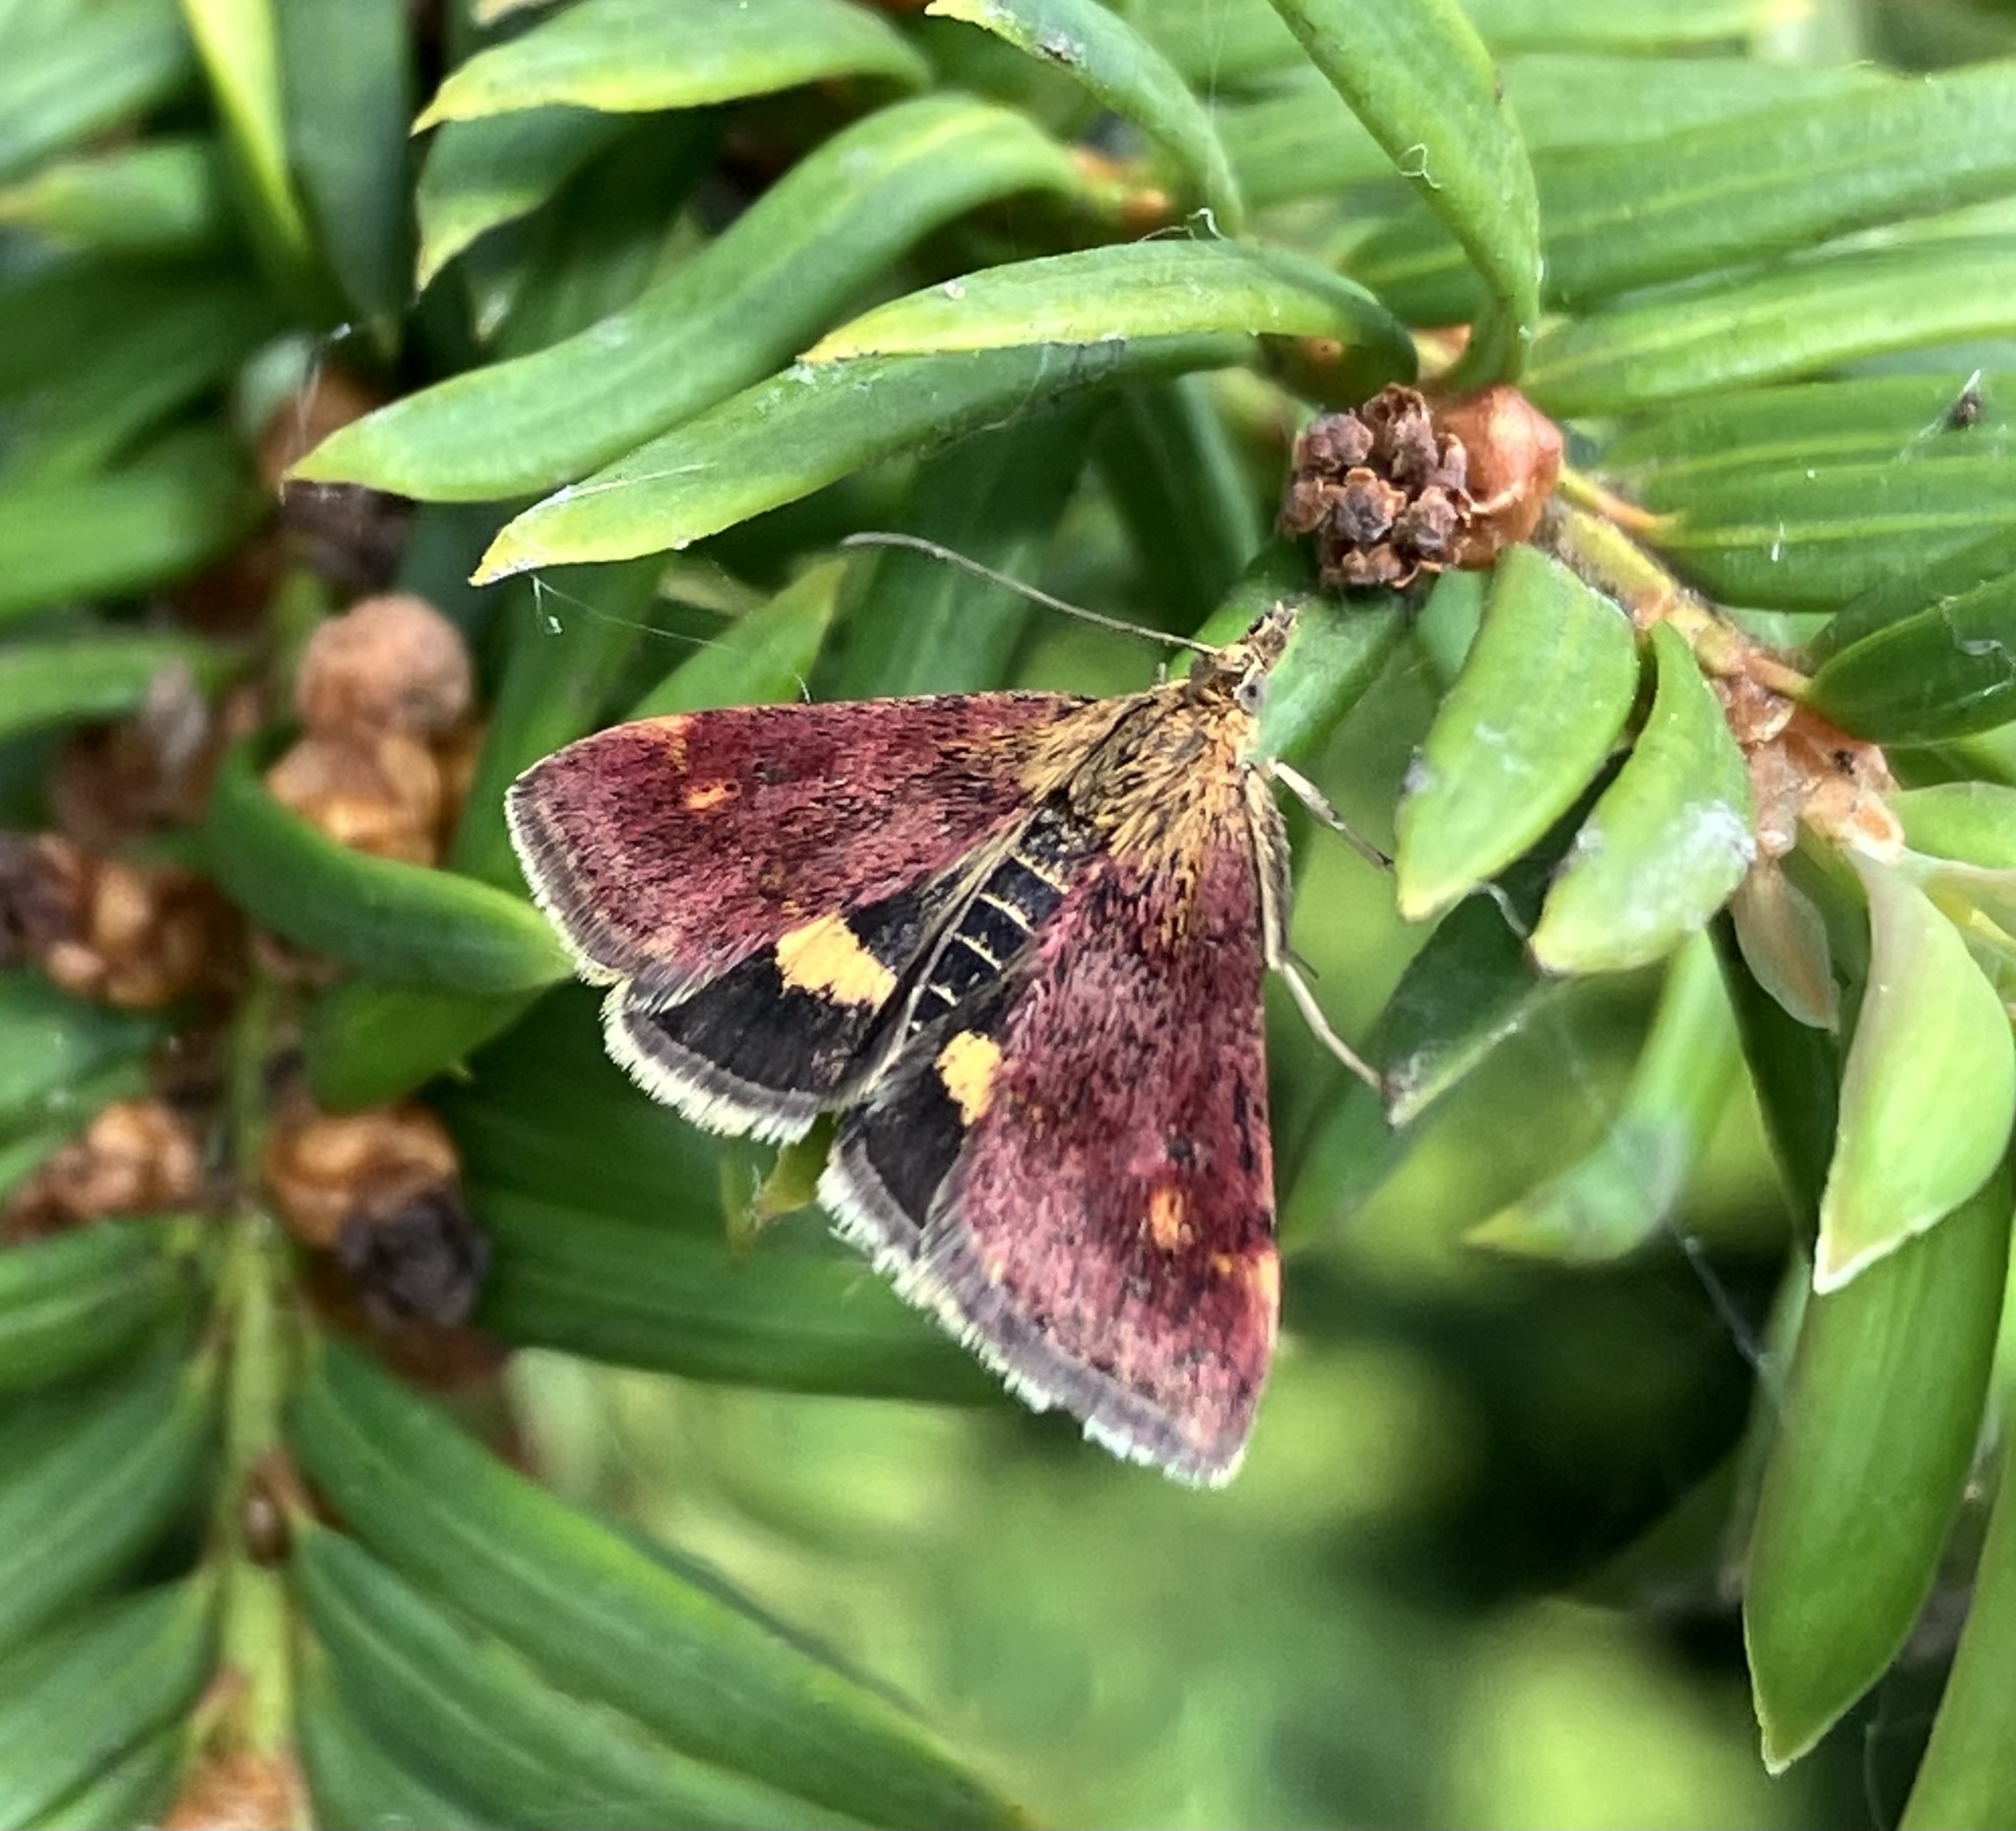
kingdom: Animalia
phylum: Arthropoda
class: Insecta
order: Lepidoptera
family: Crambidae
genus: Pyrausta
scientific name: Pyrausta aurata
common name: Small purple & gold
